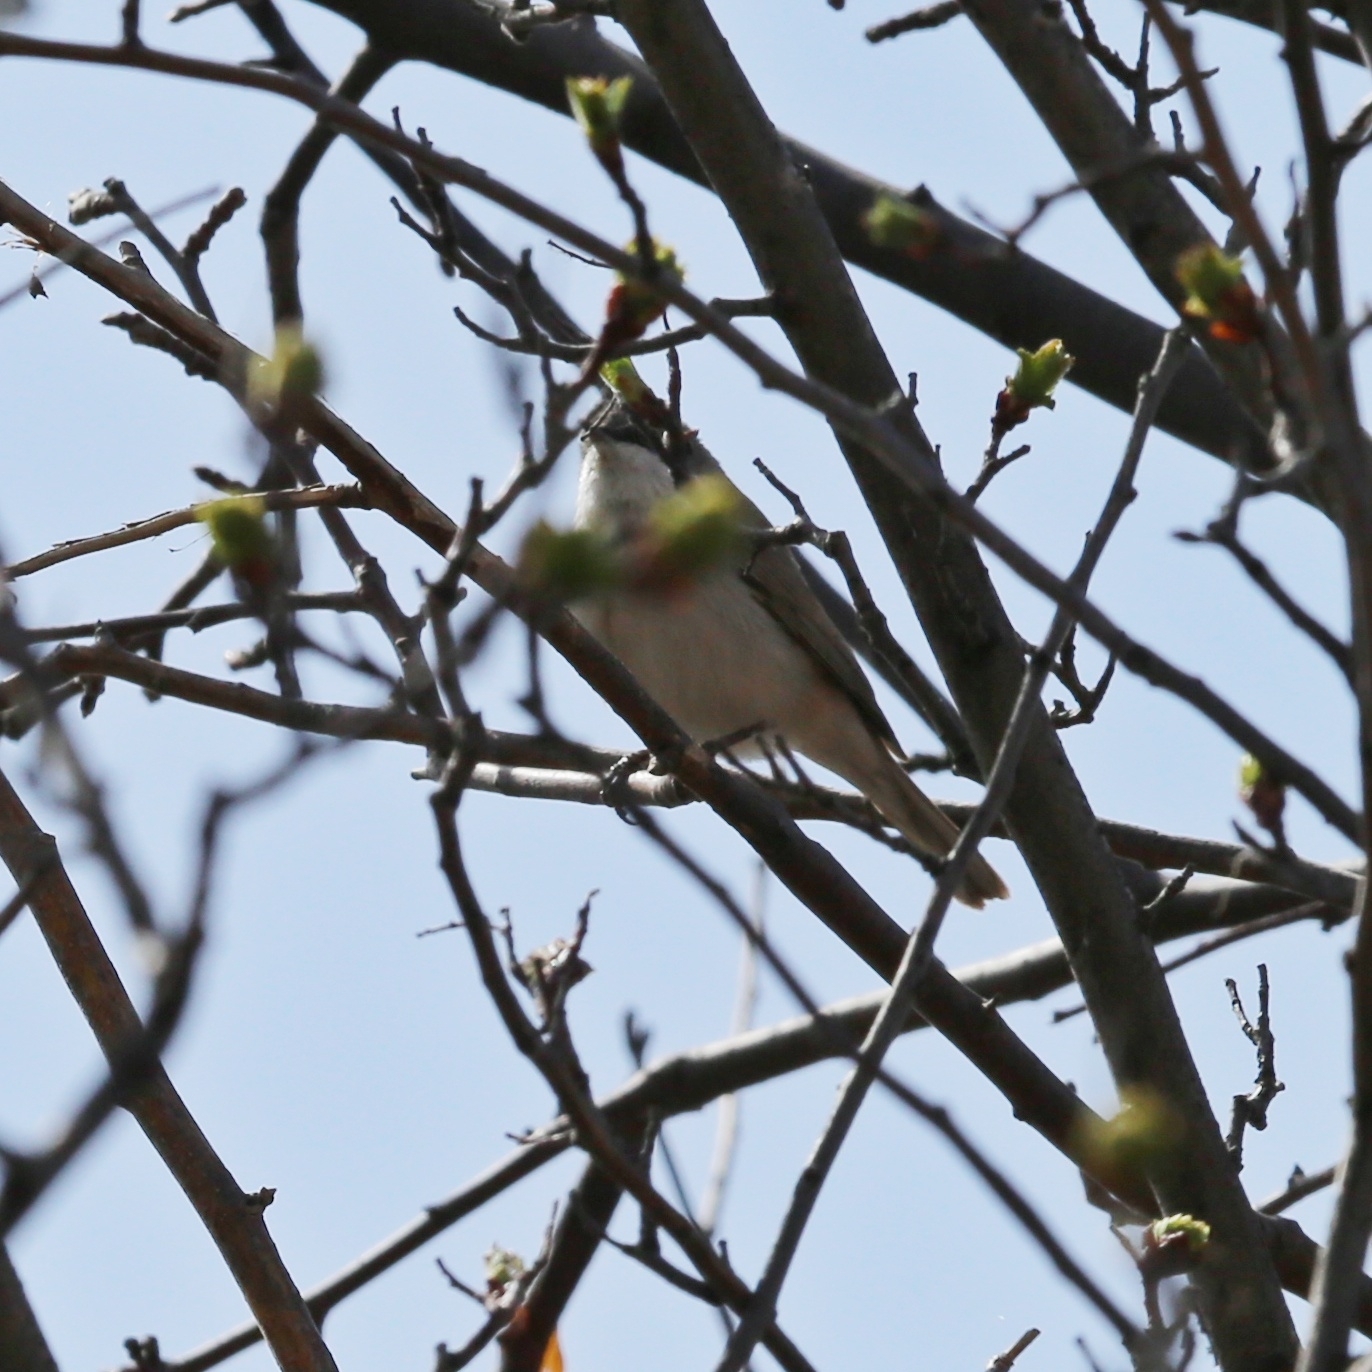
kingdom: Animalia
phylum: Chordata
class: Aves
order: Passeriformes
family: Sylviidae
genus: Sylvia
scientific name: Sylvia curruca
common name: Lesser whitethroat
